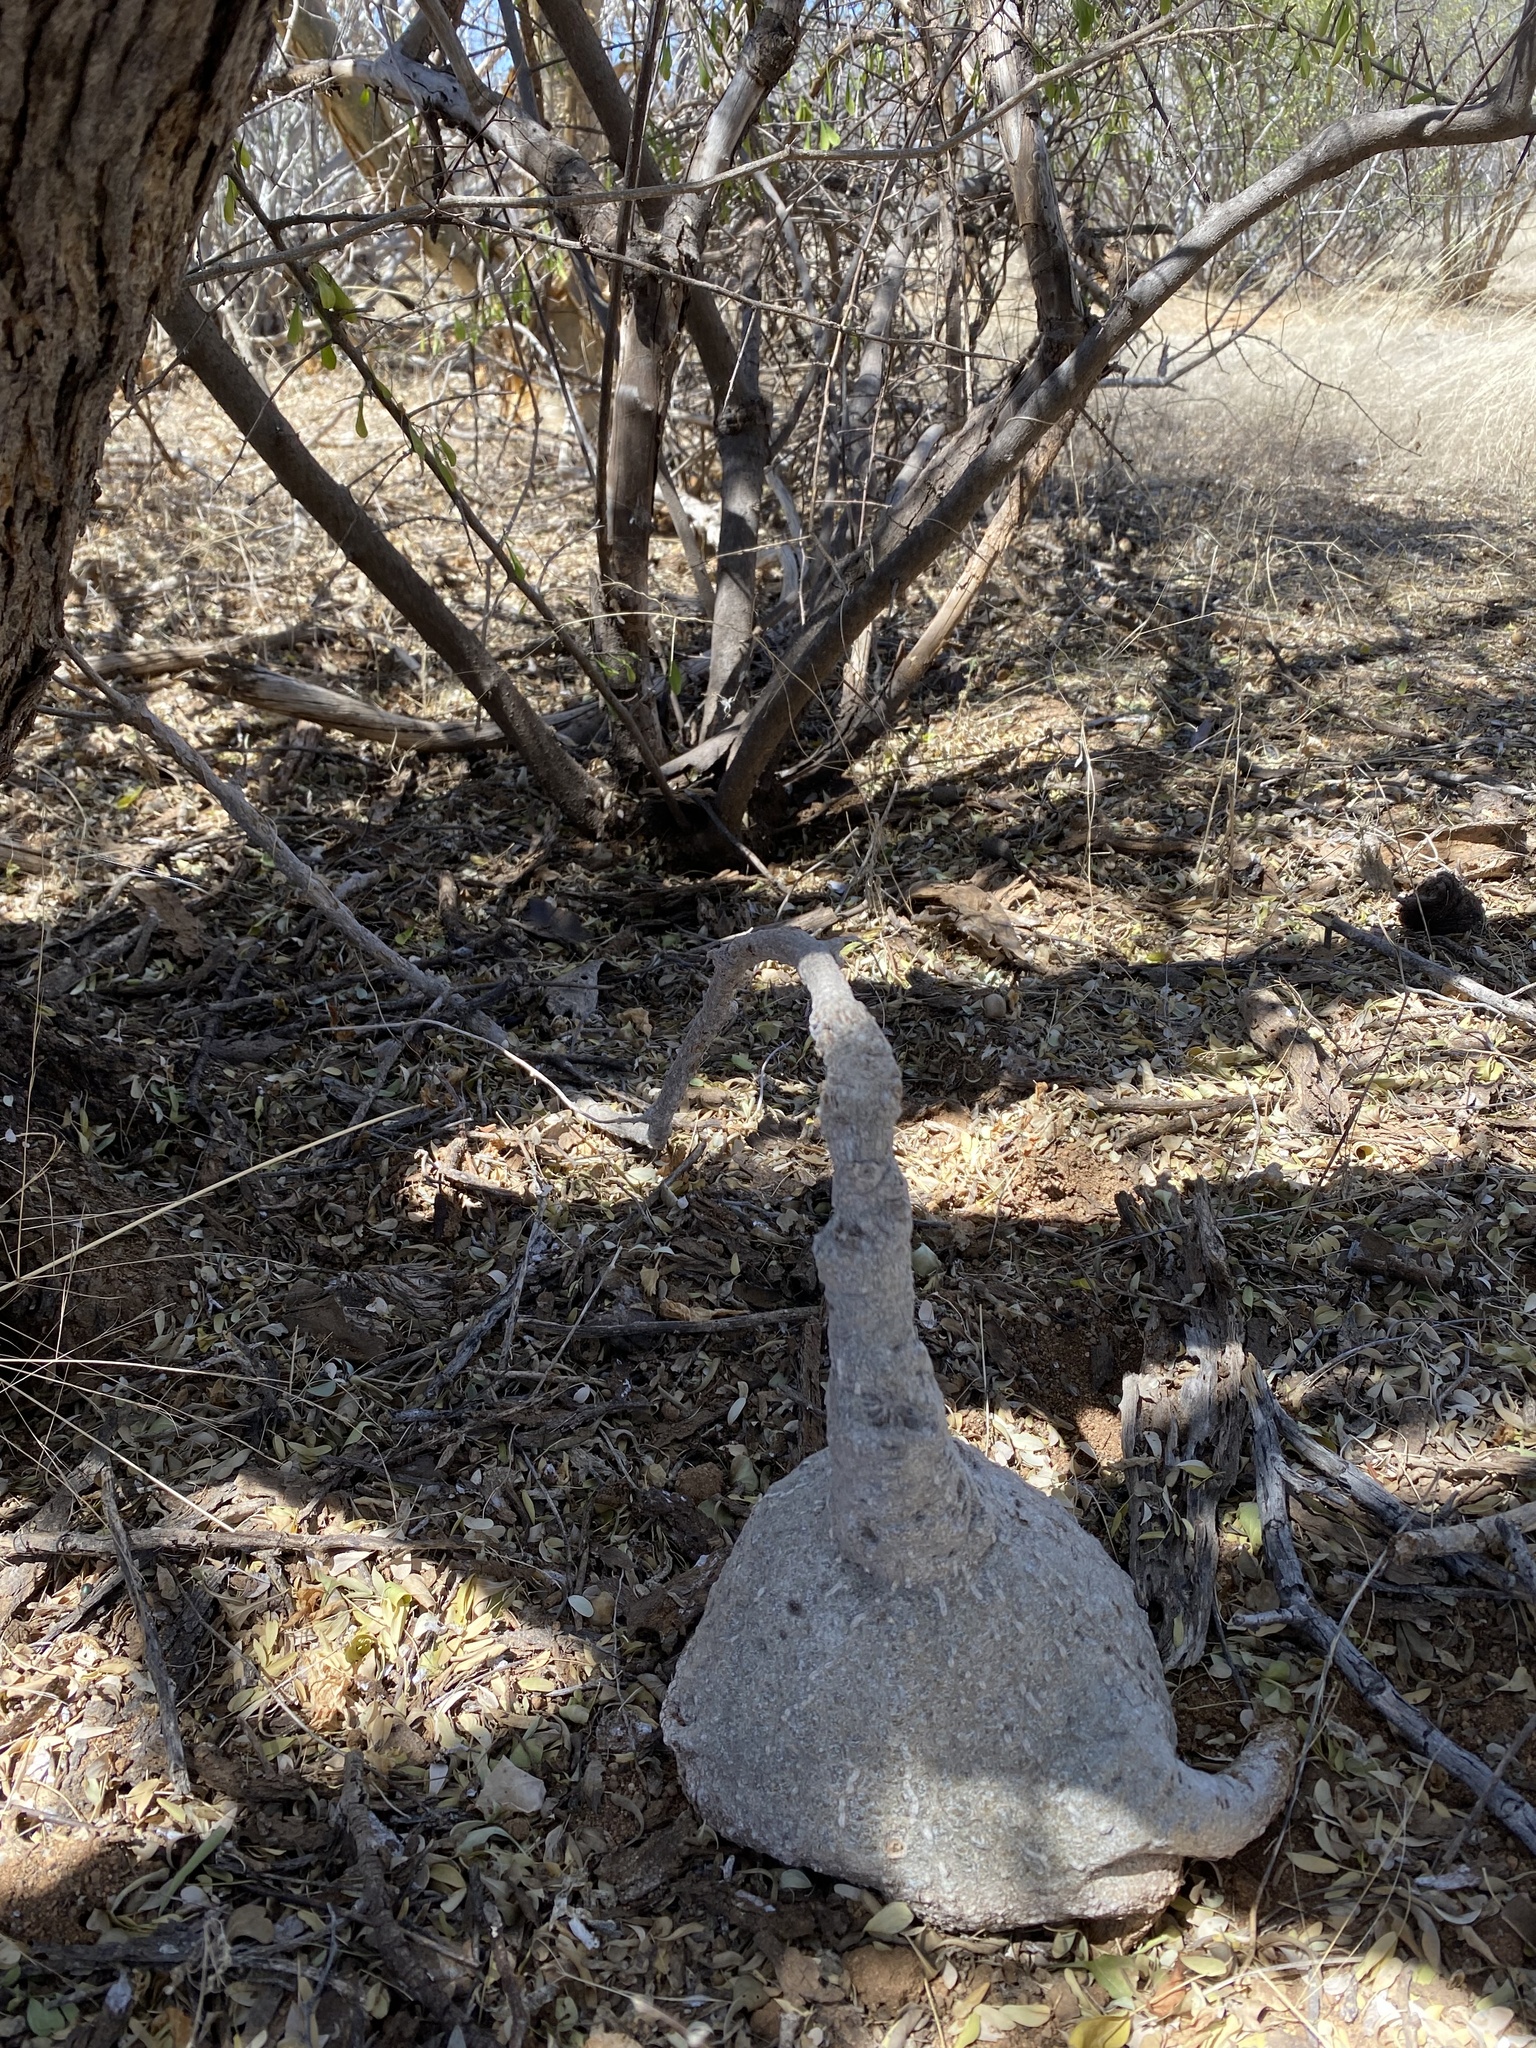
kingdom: Plantae
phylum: Tracheophyta
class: Magnoliopsida
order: Cucurbitales
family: Cucurbitaceae
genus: Ibervillea
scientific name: Ibervillea sonorae
